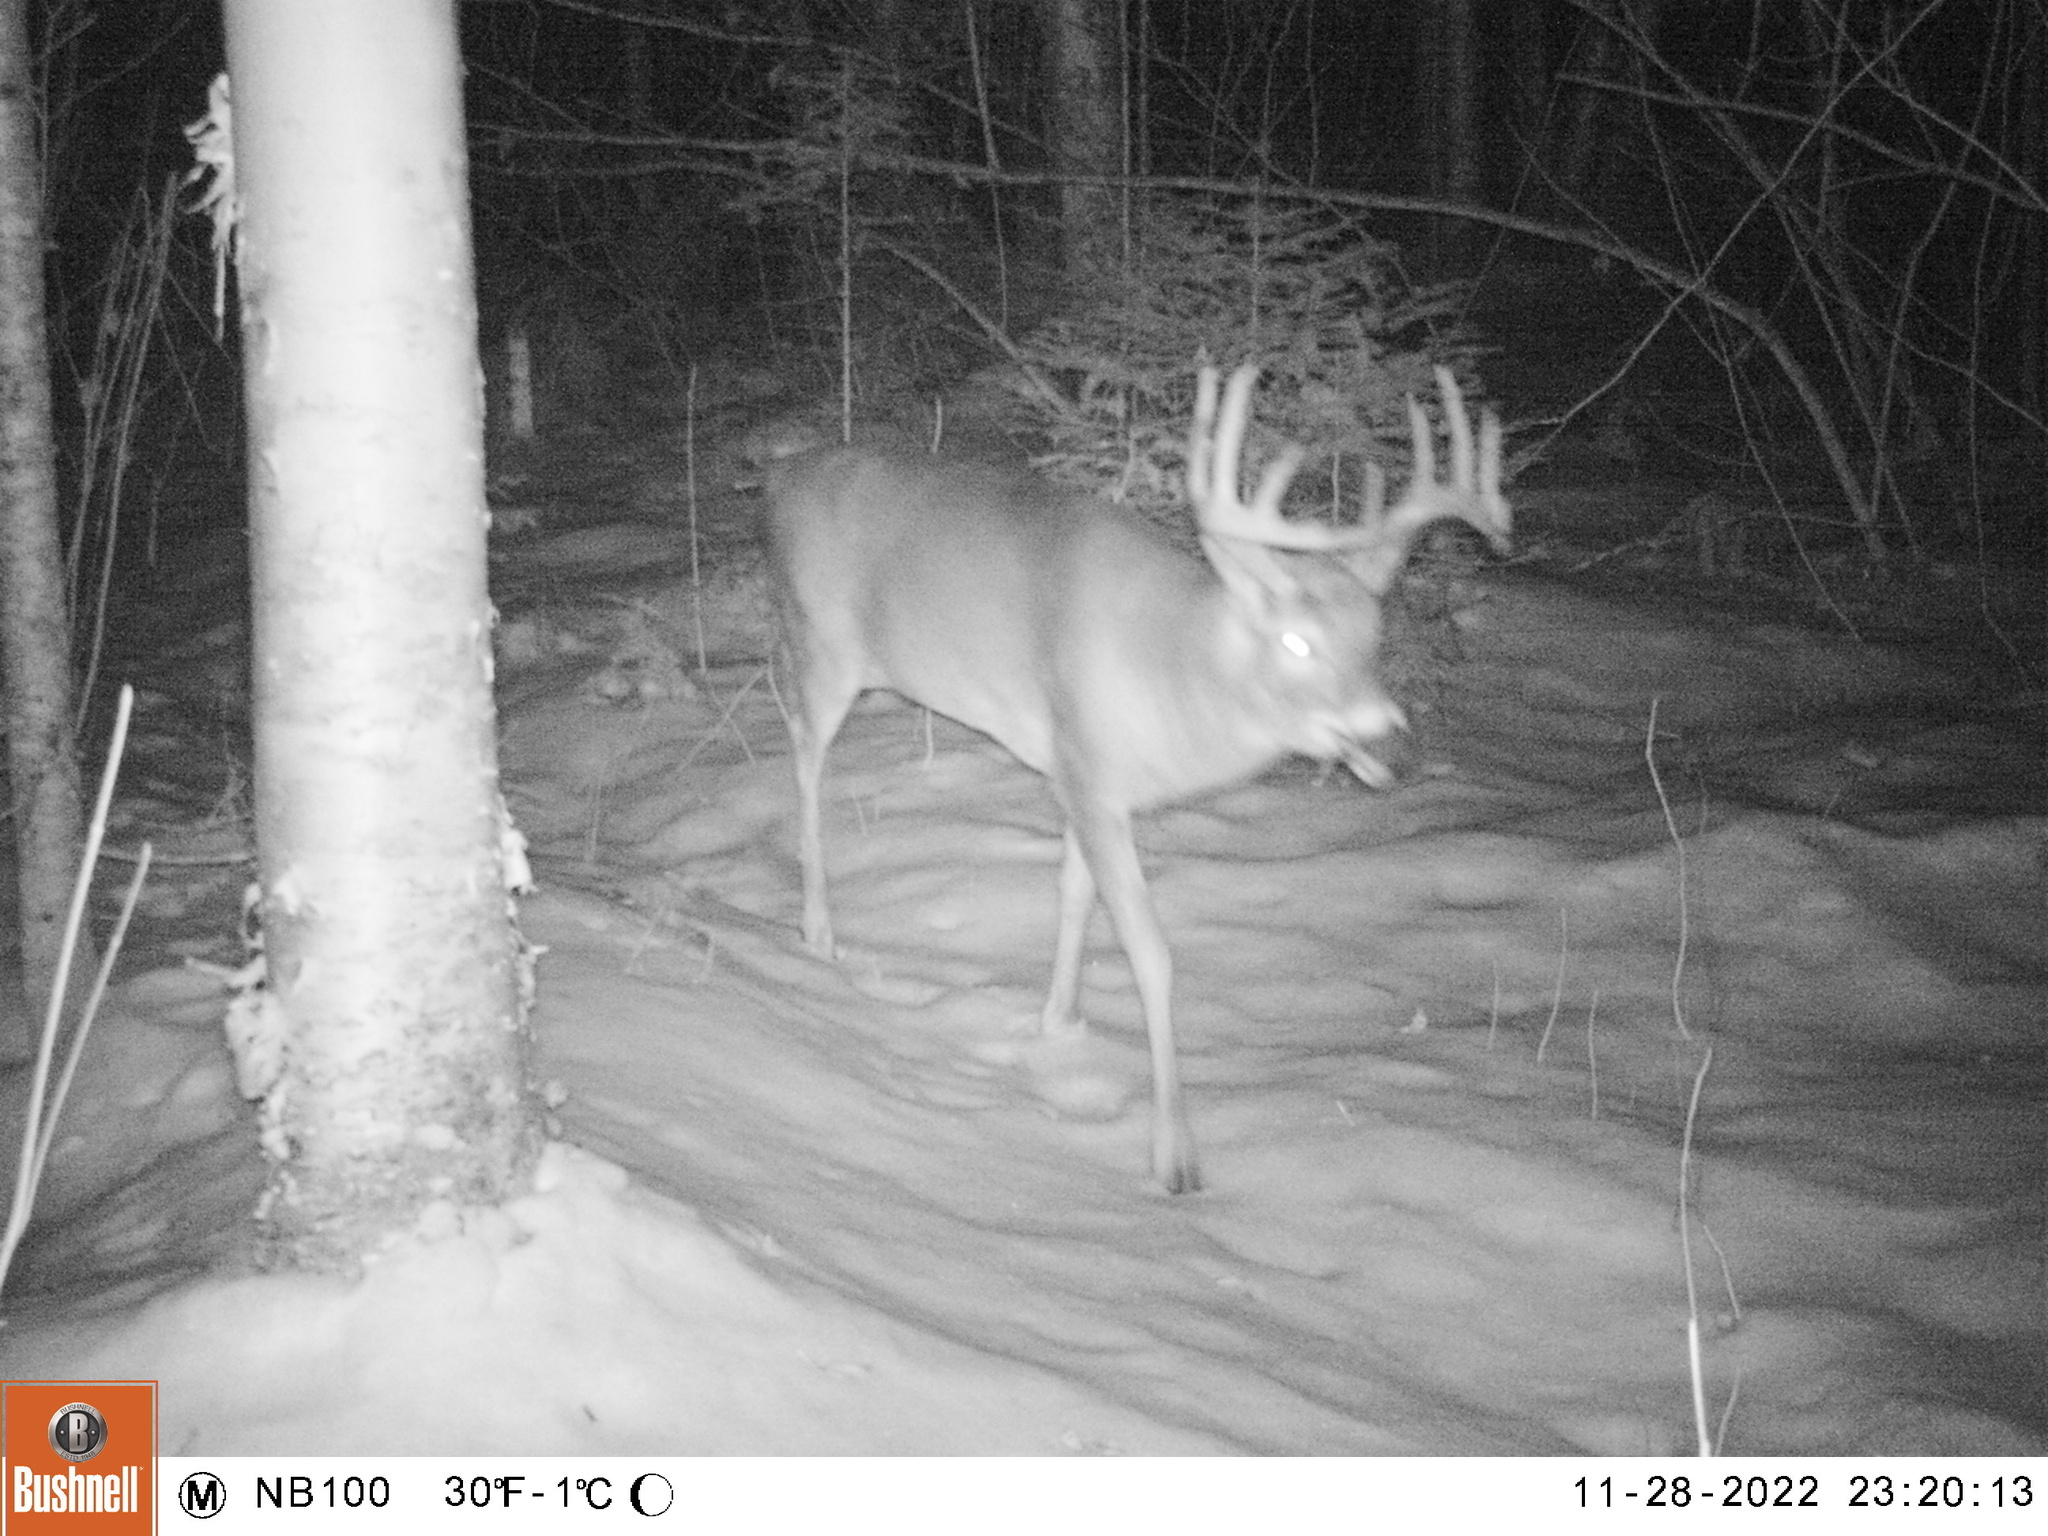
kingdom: Animalia
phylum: Chordata
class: Mammalia
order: Artiodactyla
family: Cervidae
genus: Odocoileus
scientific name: Odocoileus virginianus
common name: White-tailed deer
